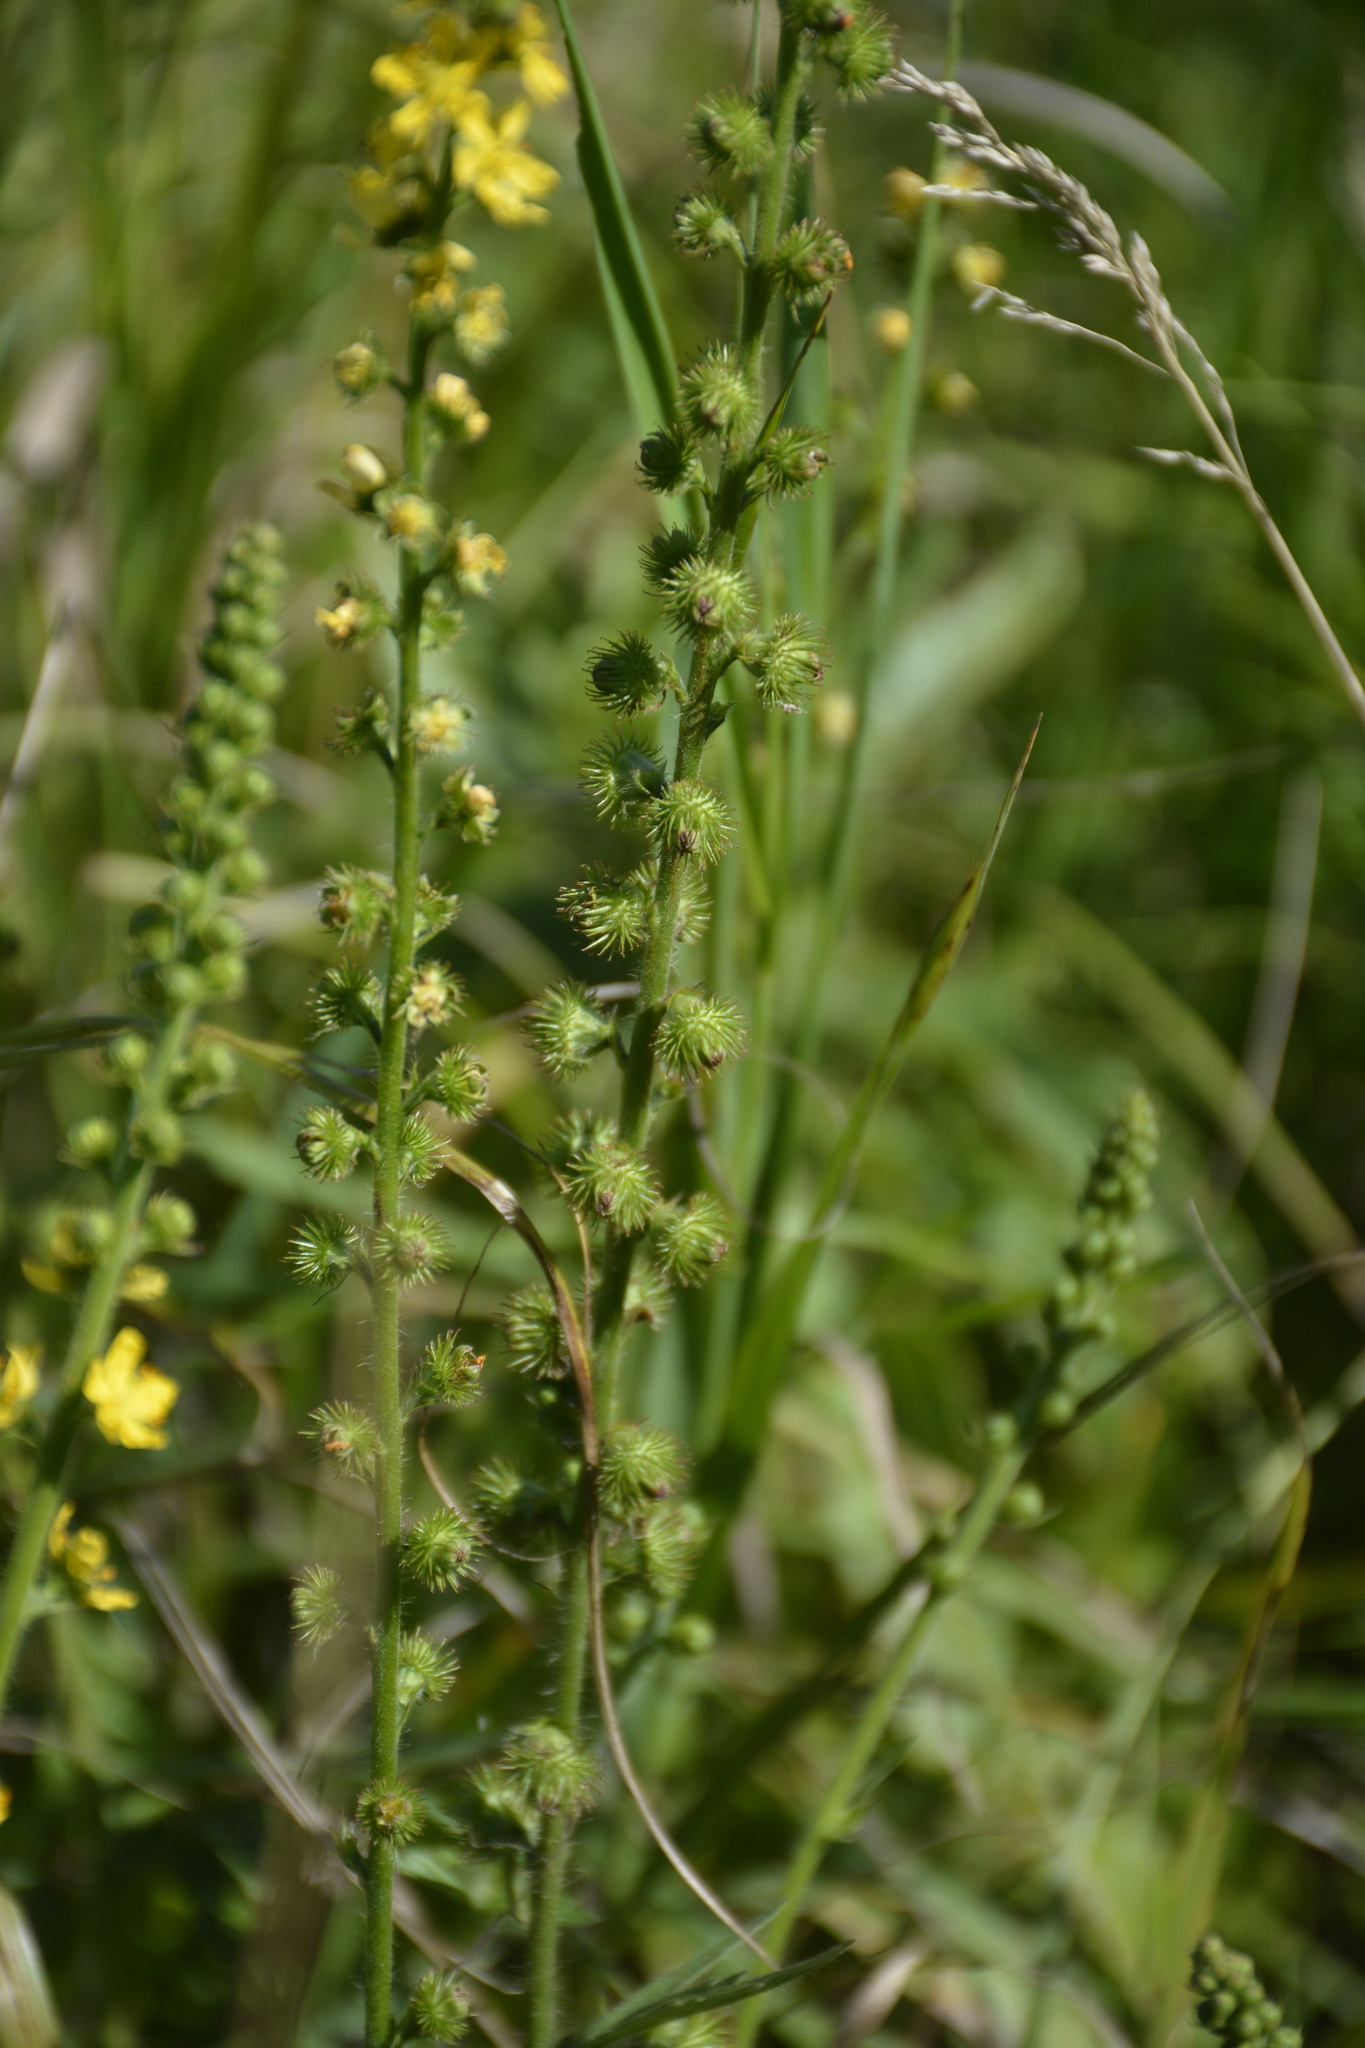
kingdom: Plantae
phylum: Tracheophyta
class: Magnoliopsida
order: Rosales
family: Rosaceae
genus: Agrimonia
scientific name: Agrimonia eupatoria
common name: Agrimony
